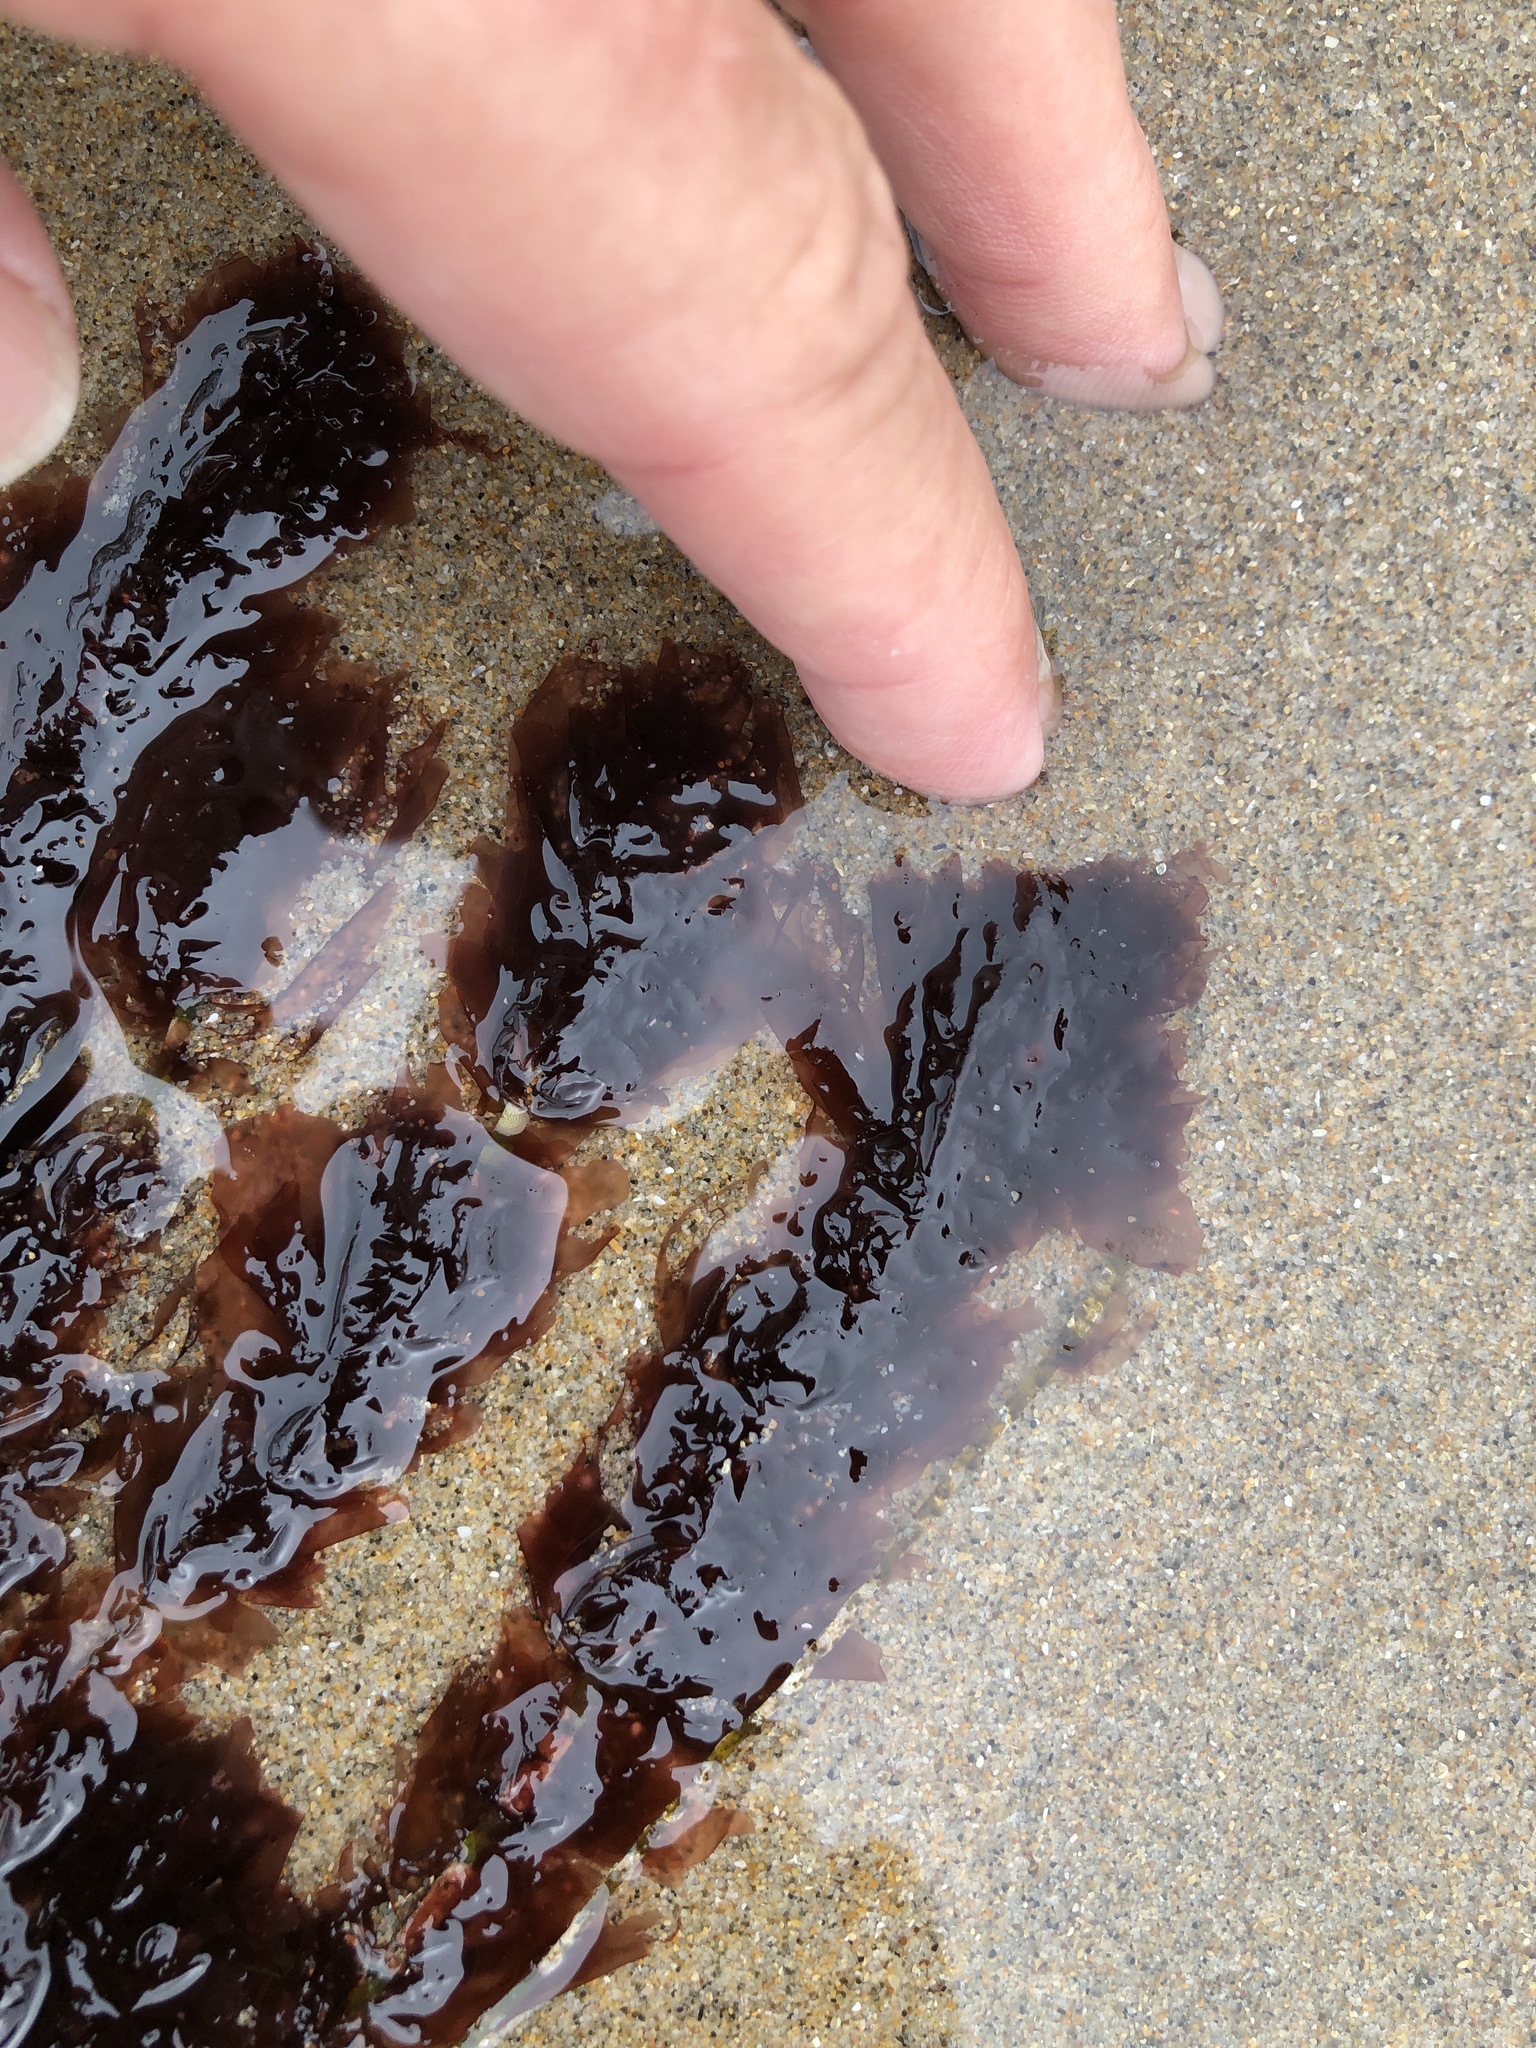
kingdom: Plantae
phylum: Rhodophyta
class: Compsopogonophyceae
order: Erythropeltidales
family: Erythrotrichiaceae
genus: Smithora
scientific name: Smithora naiadum
